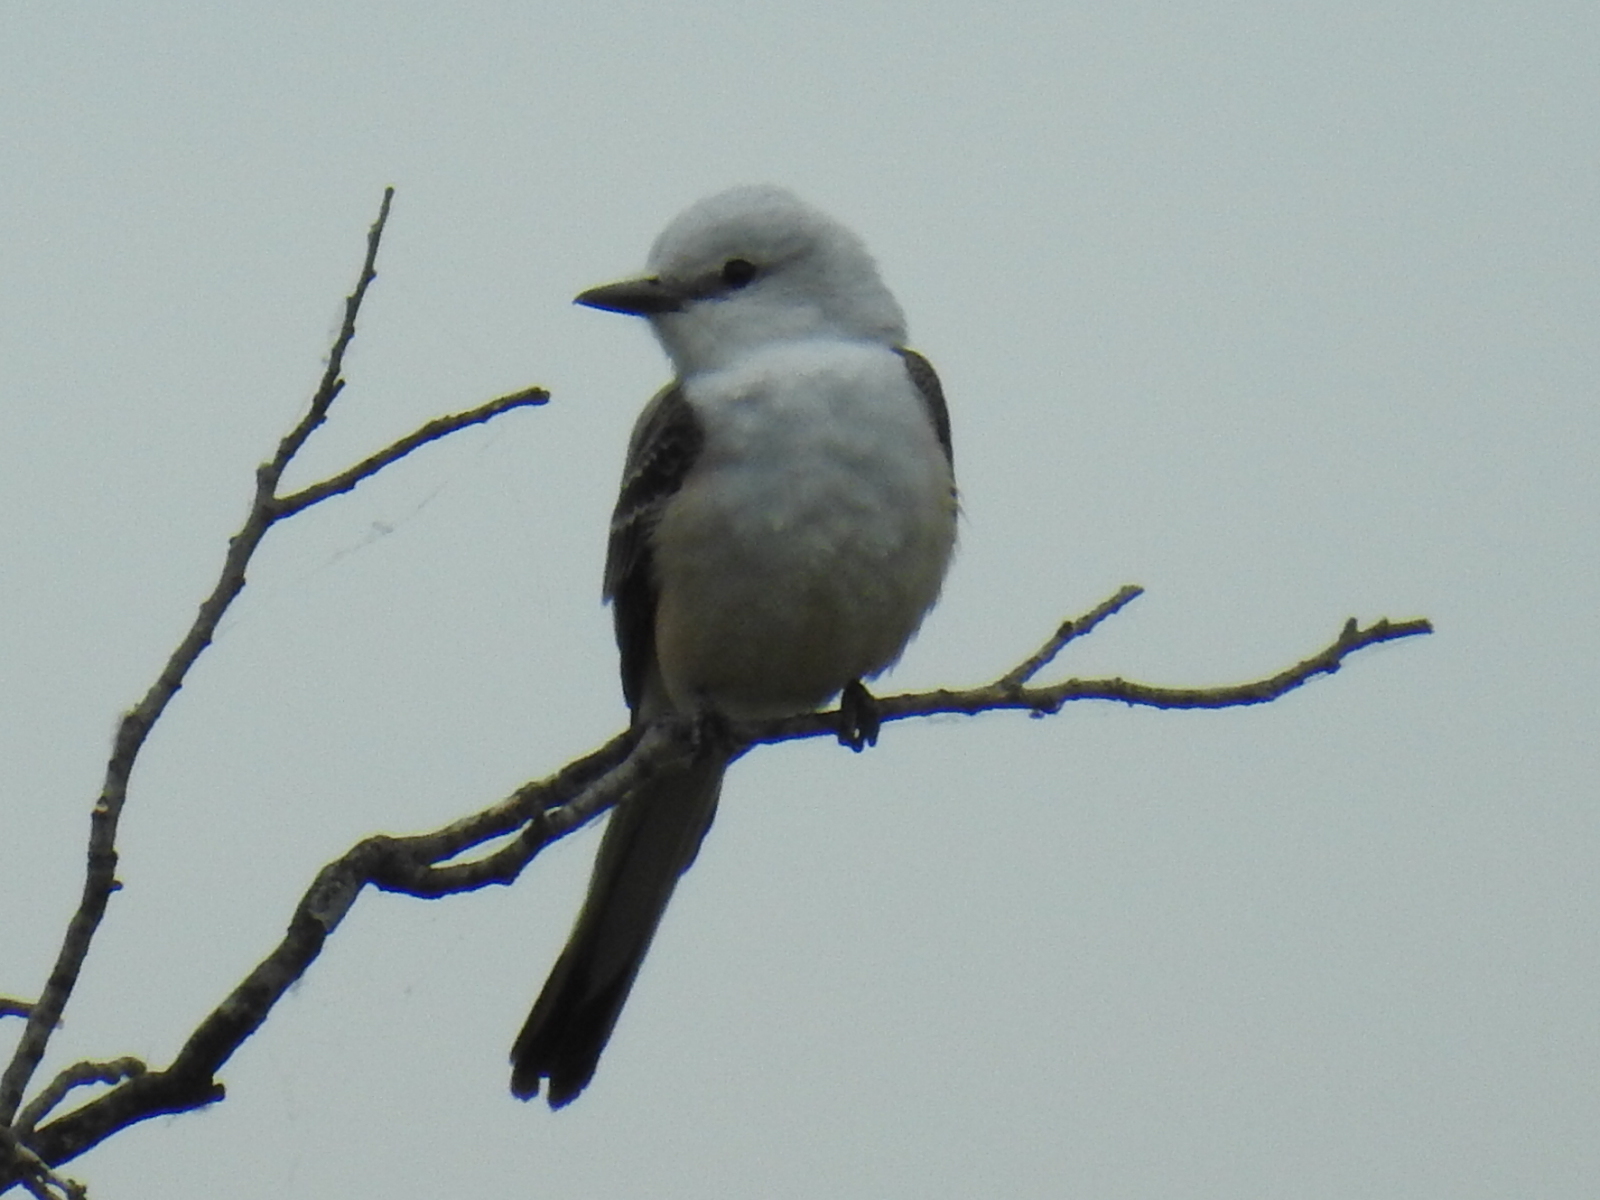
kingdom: Animalia
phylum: Chordata
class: Aves
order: Passeriformes
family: Tyrannidae
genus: Tyrannus
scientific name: Tyrannus forficatus
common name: Scissor-tailed flycatcher
